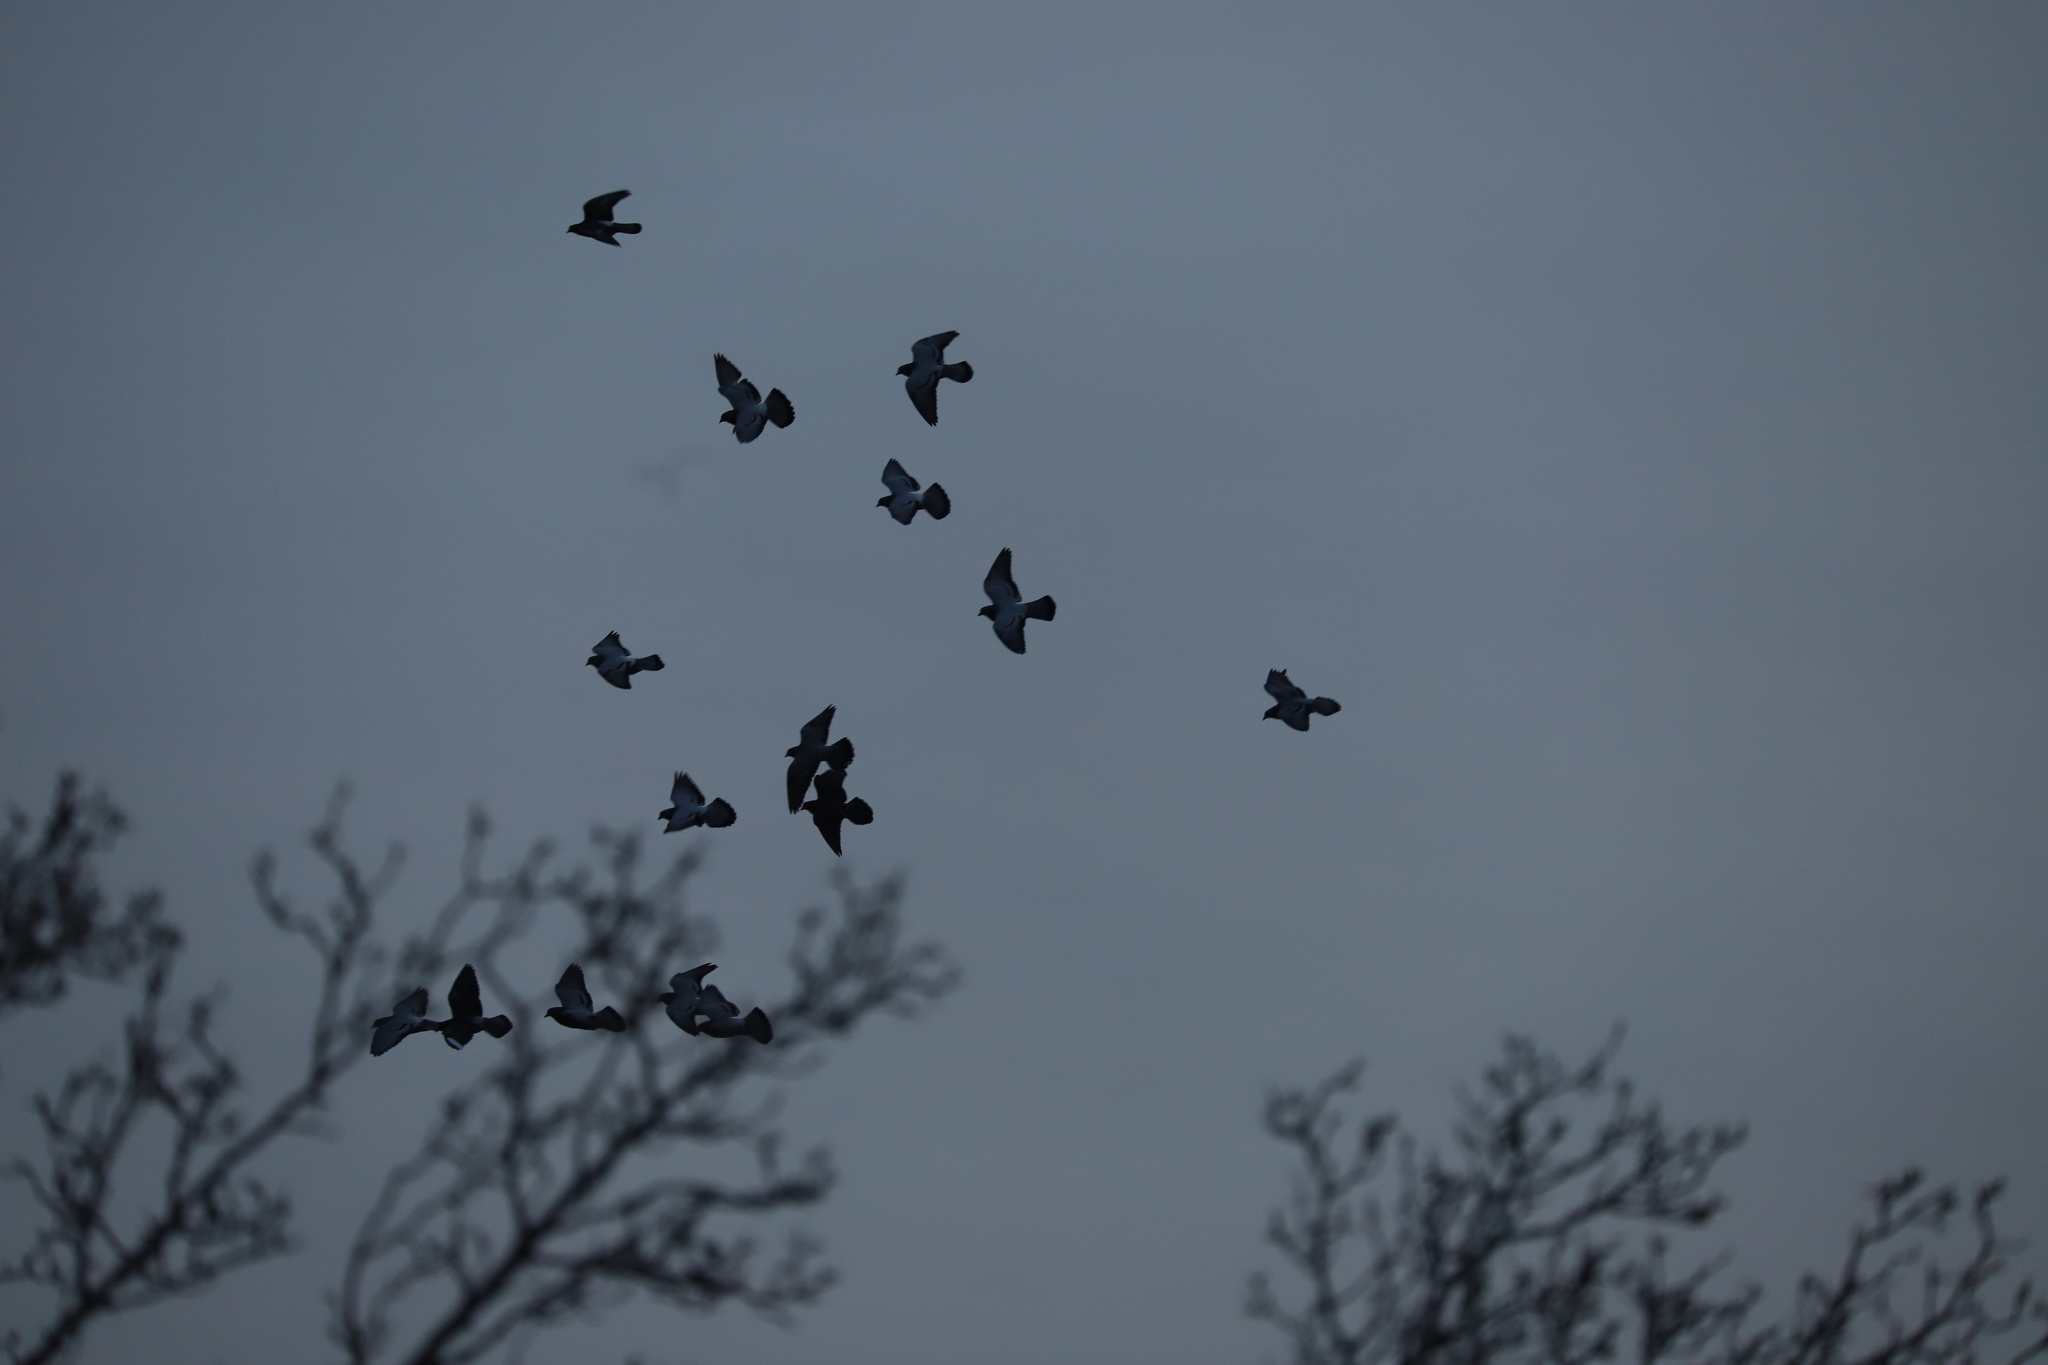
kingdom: Animalia
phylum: Chordata
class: Aves
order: Columbiformes
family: Columbidae
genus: Columba
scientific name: Columba livia
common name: Rock pigeon
